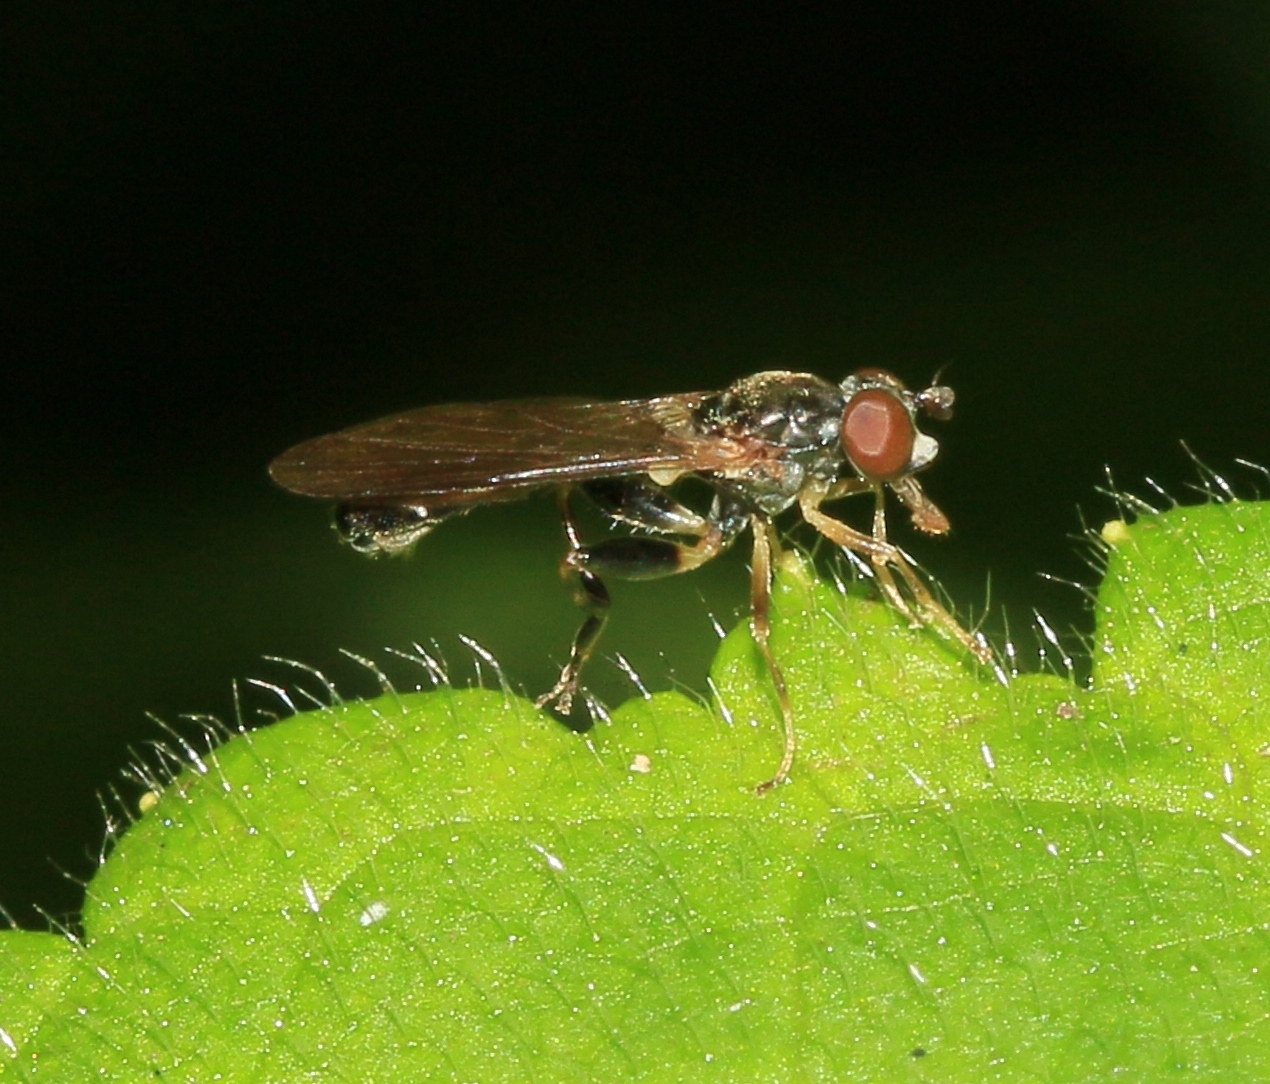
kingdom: Animalia
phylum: Arthropoda
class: Insecta
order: Diptera
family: Syrphidae
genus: Sphegina
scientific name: Sphegina
